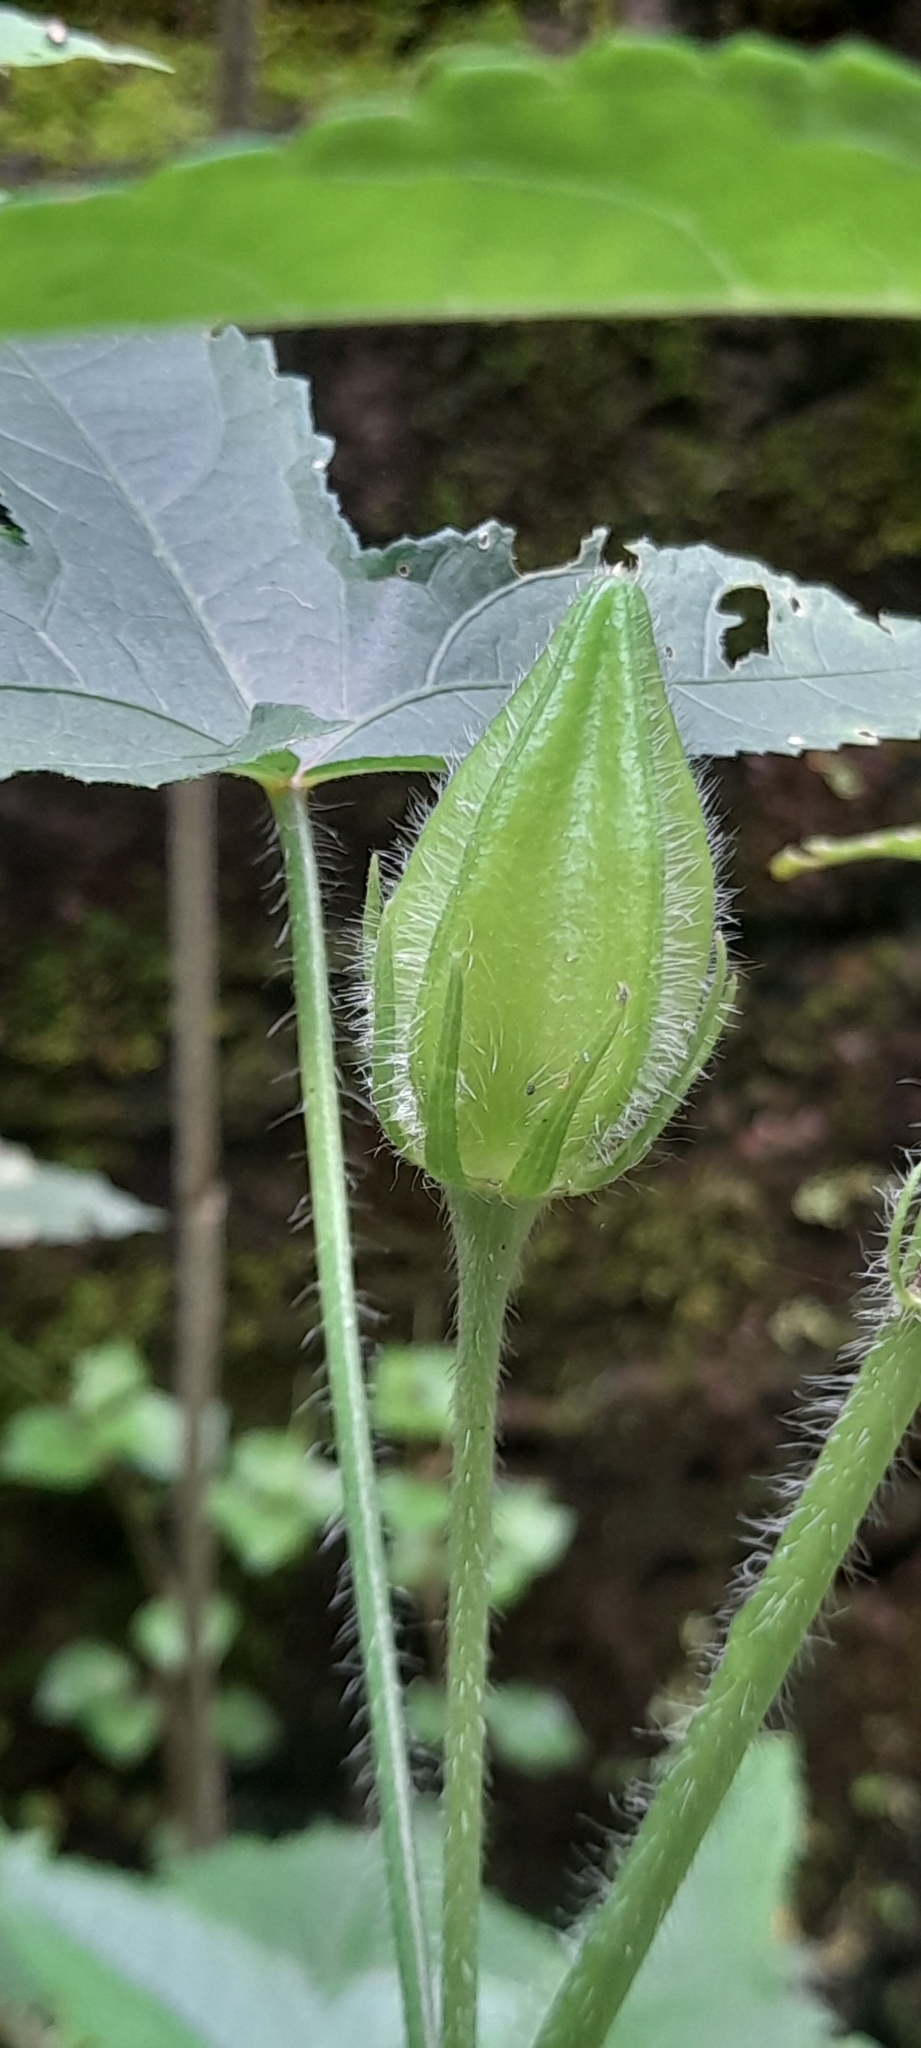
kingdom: Plantae
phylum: Tracheophyta
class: Magnoliopsida
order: Malvales
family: Malvaceae
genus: Abelmoschus
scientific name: Abelmoschus sagittifolius
